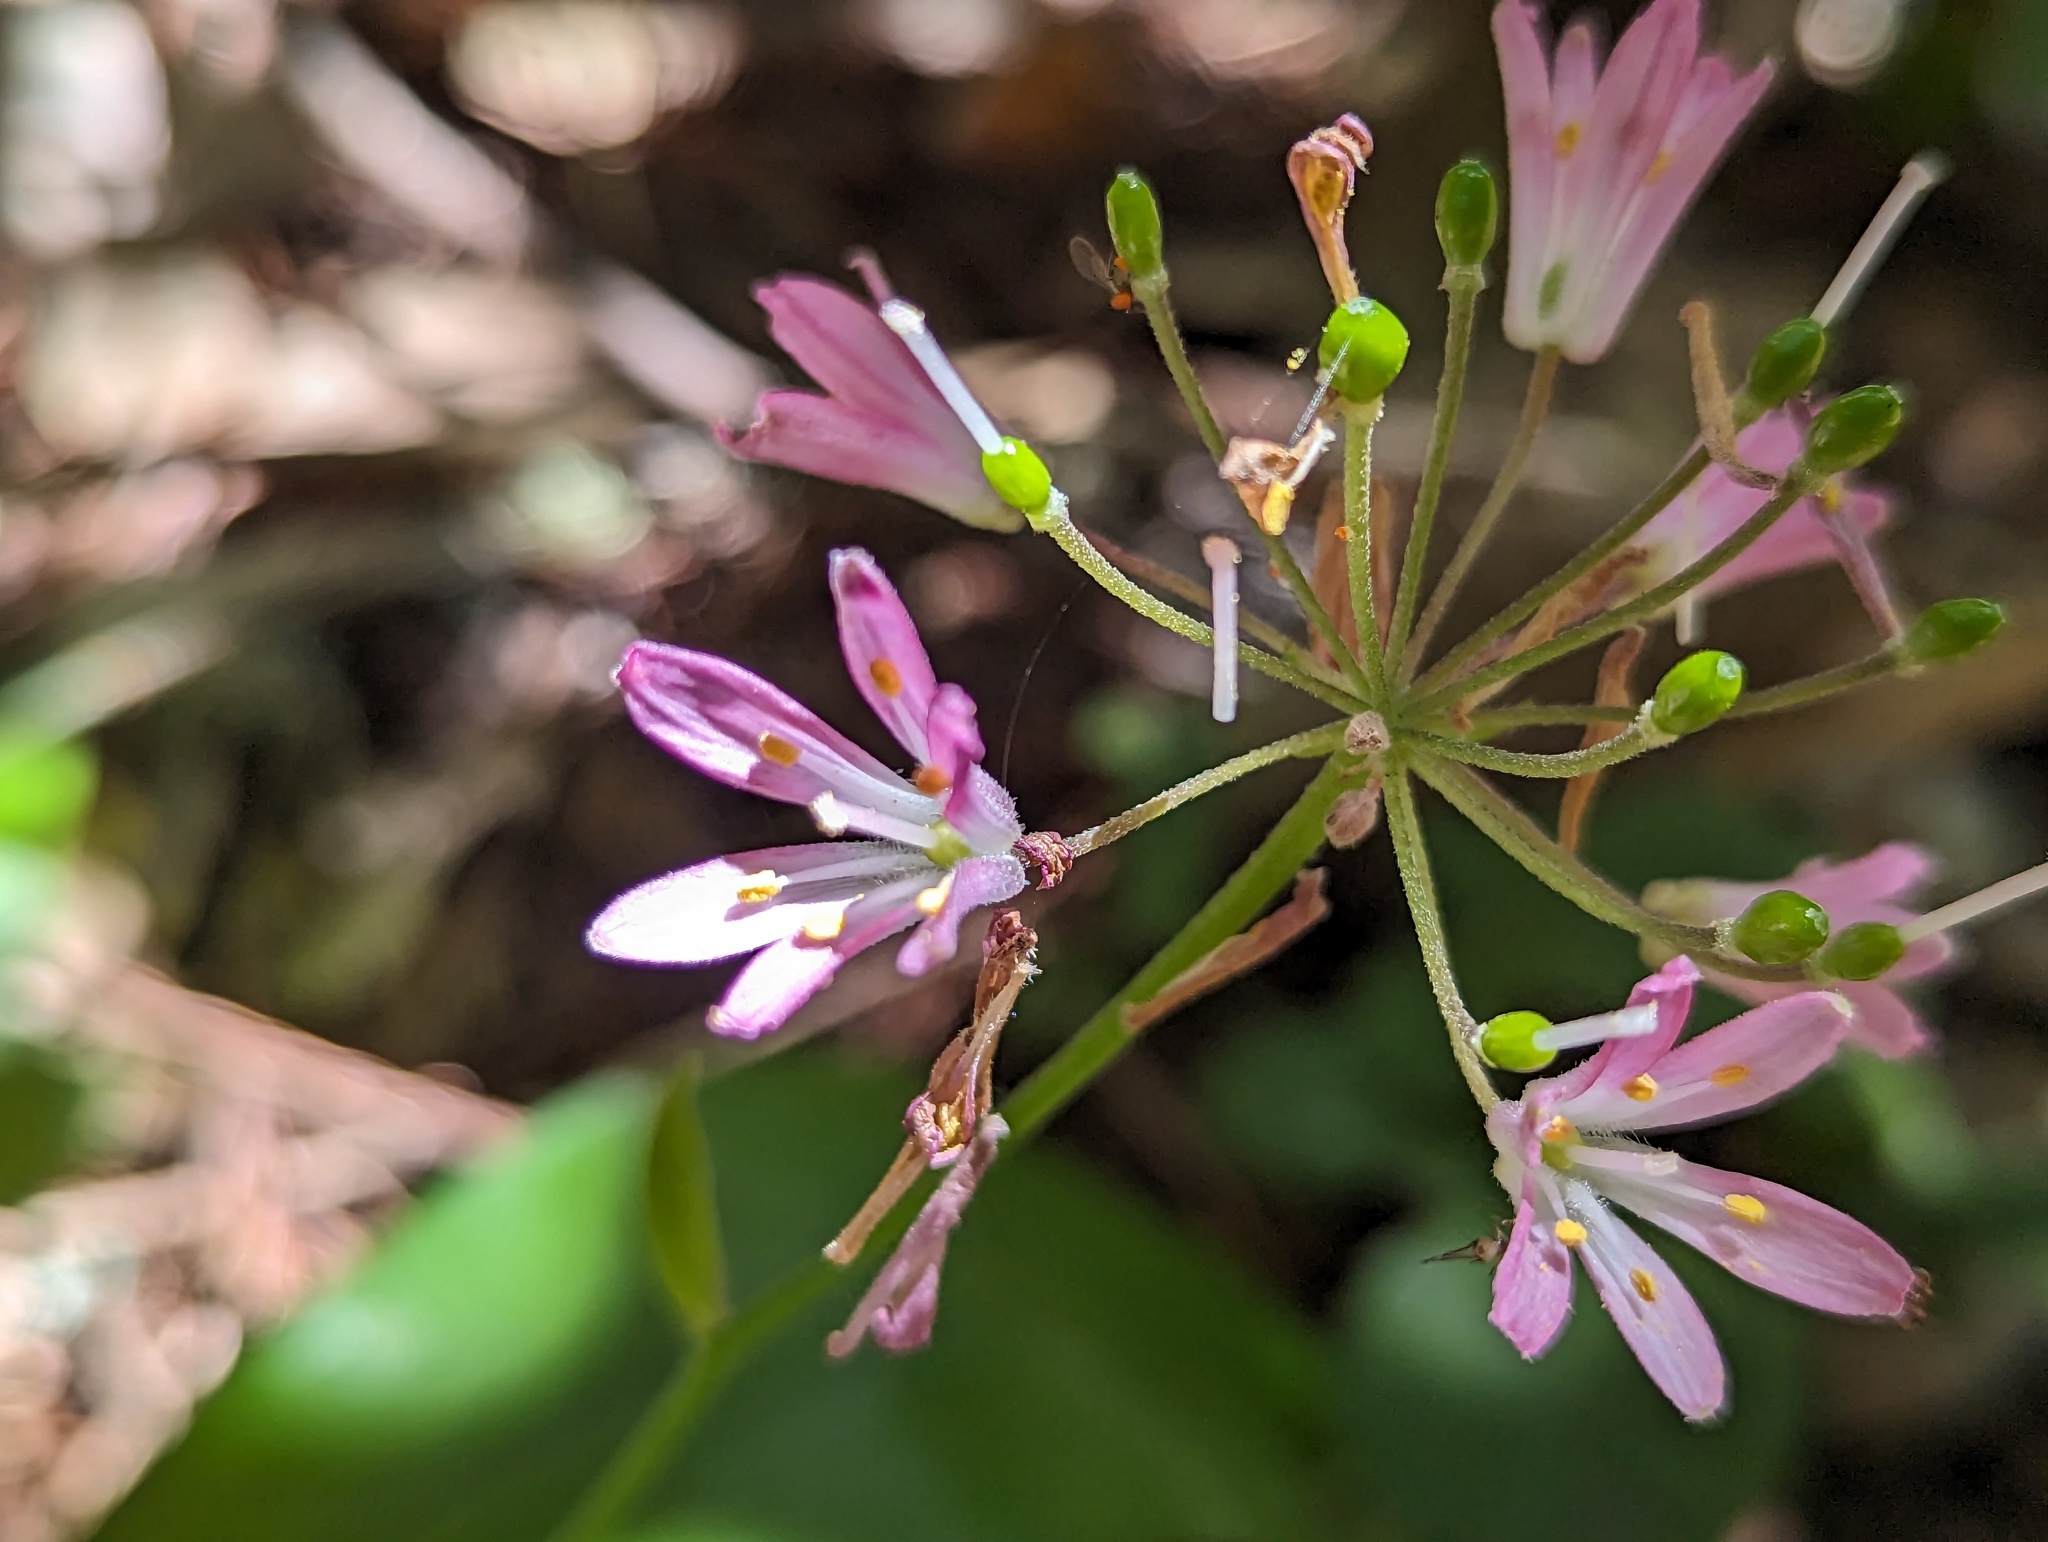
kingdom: Plantae
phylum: Tracheophyta
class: Liliopsida
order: Liliales
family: Liliaceae
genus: Clintonia
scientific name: Clintonia andrewsiana
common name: Red clintonia
